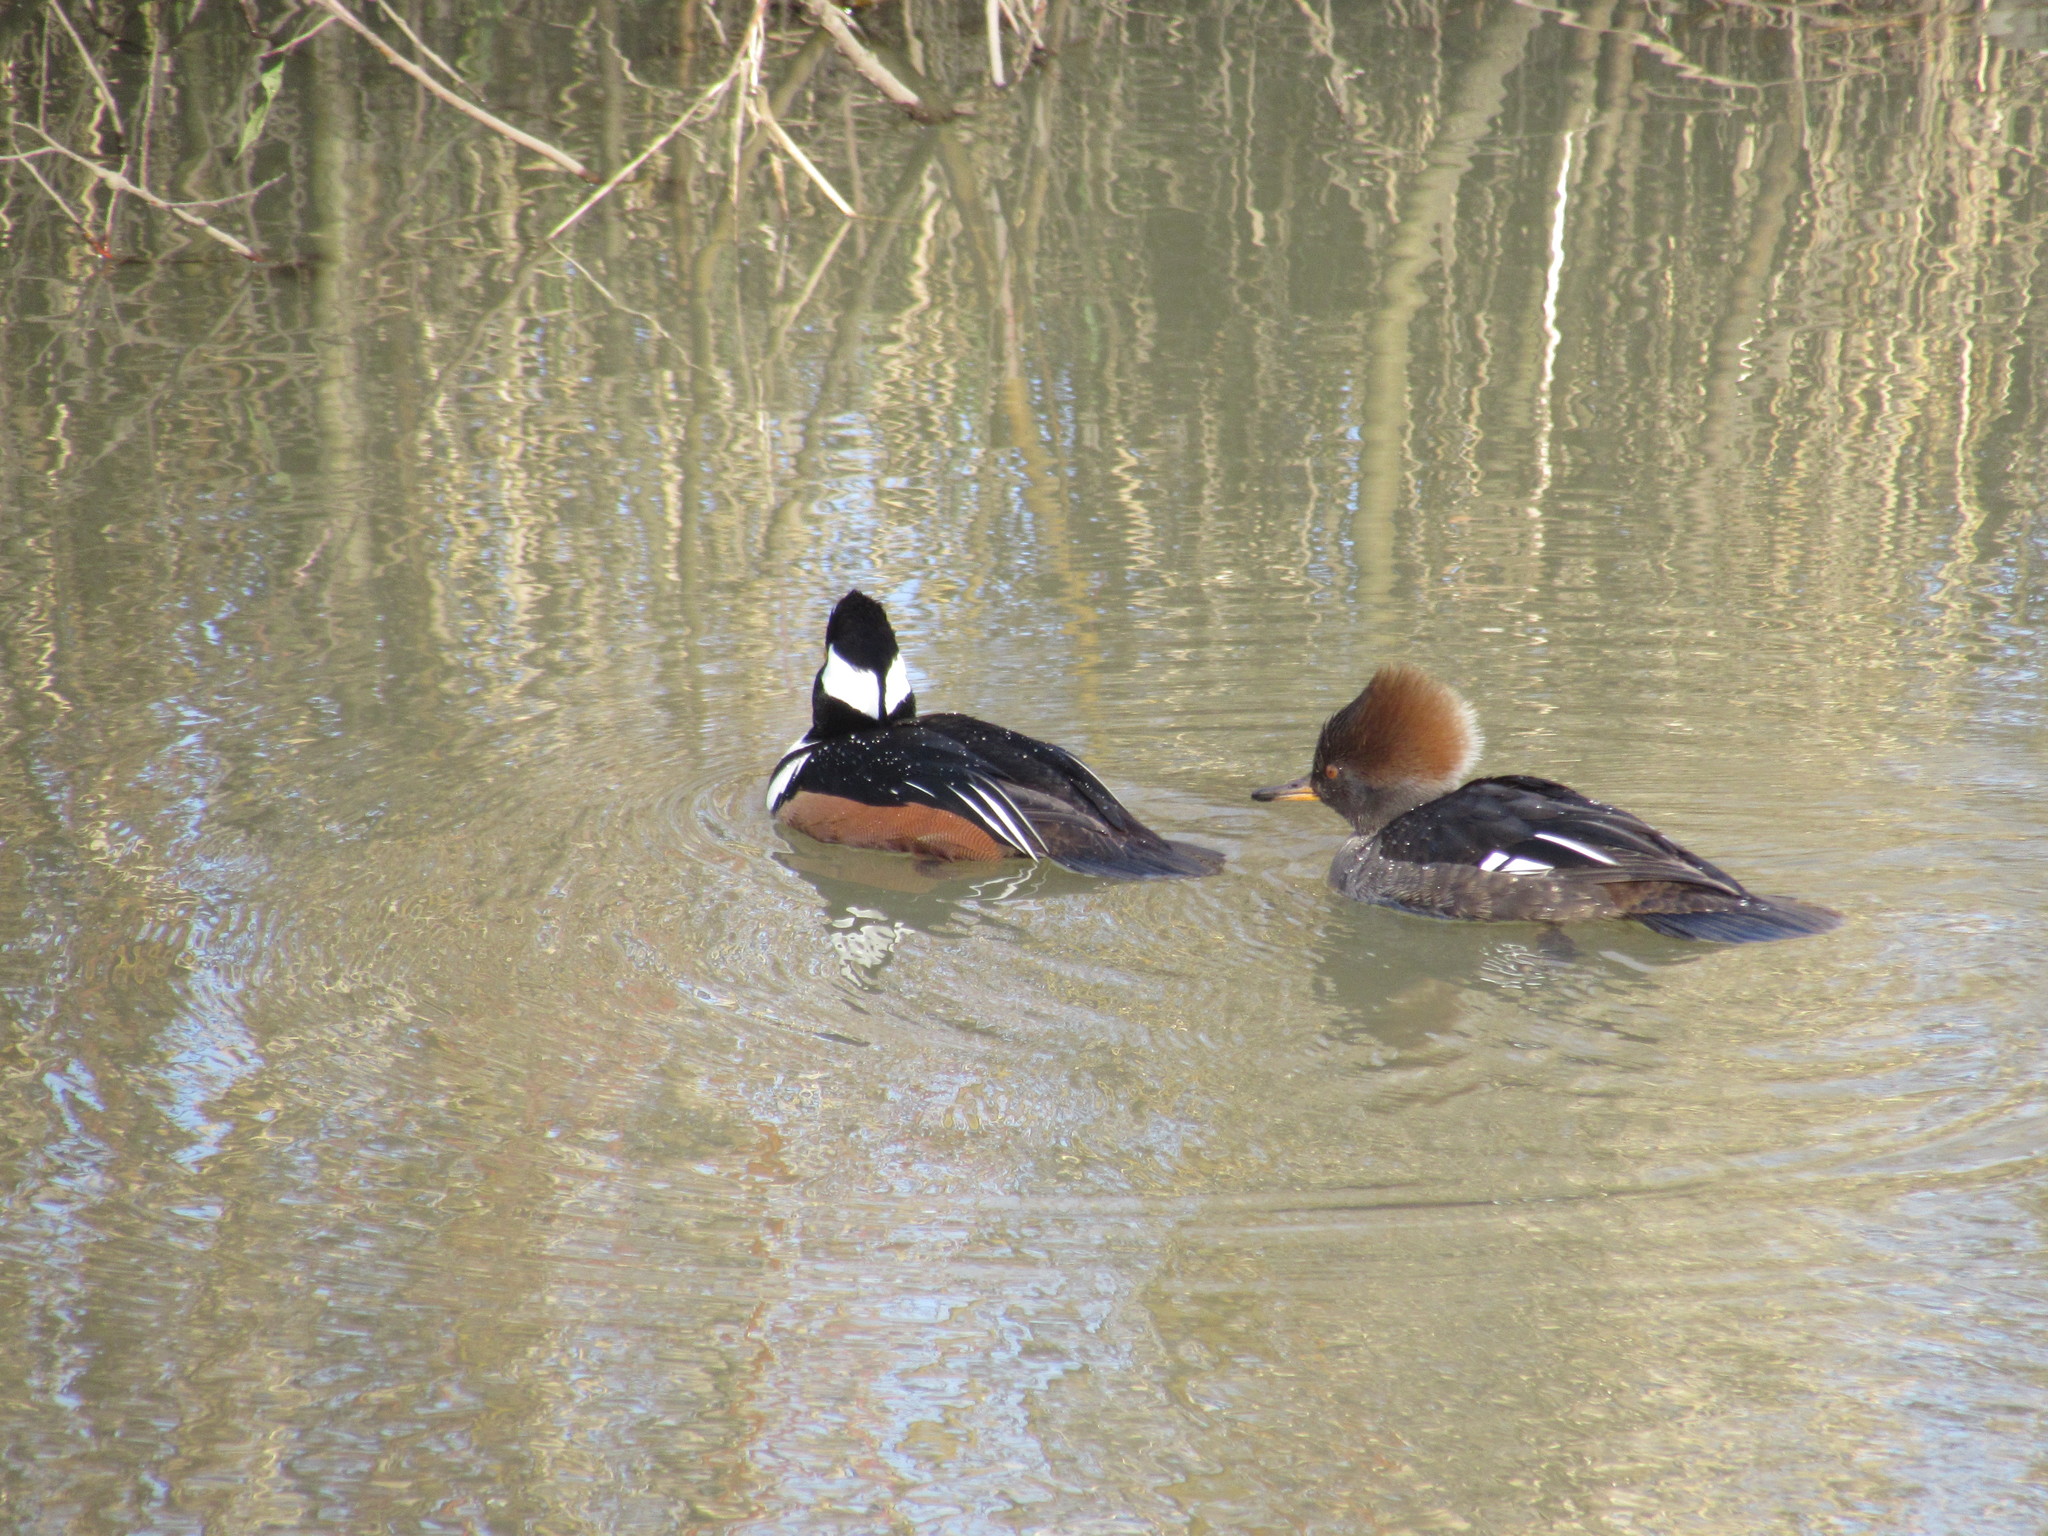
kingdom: Animalia
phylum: Chordata
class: Aves
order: Anseriformes
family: Anatidae
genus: Lophodytes
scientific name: Lophodytes cucullatus
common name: Hooded merganser
